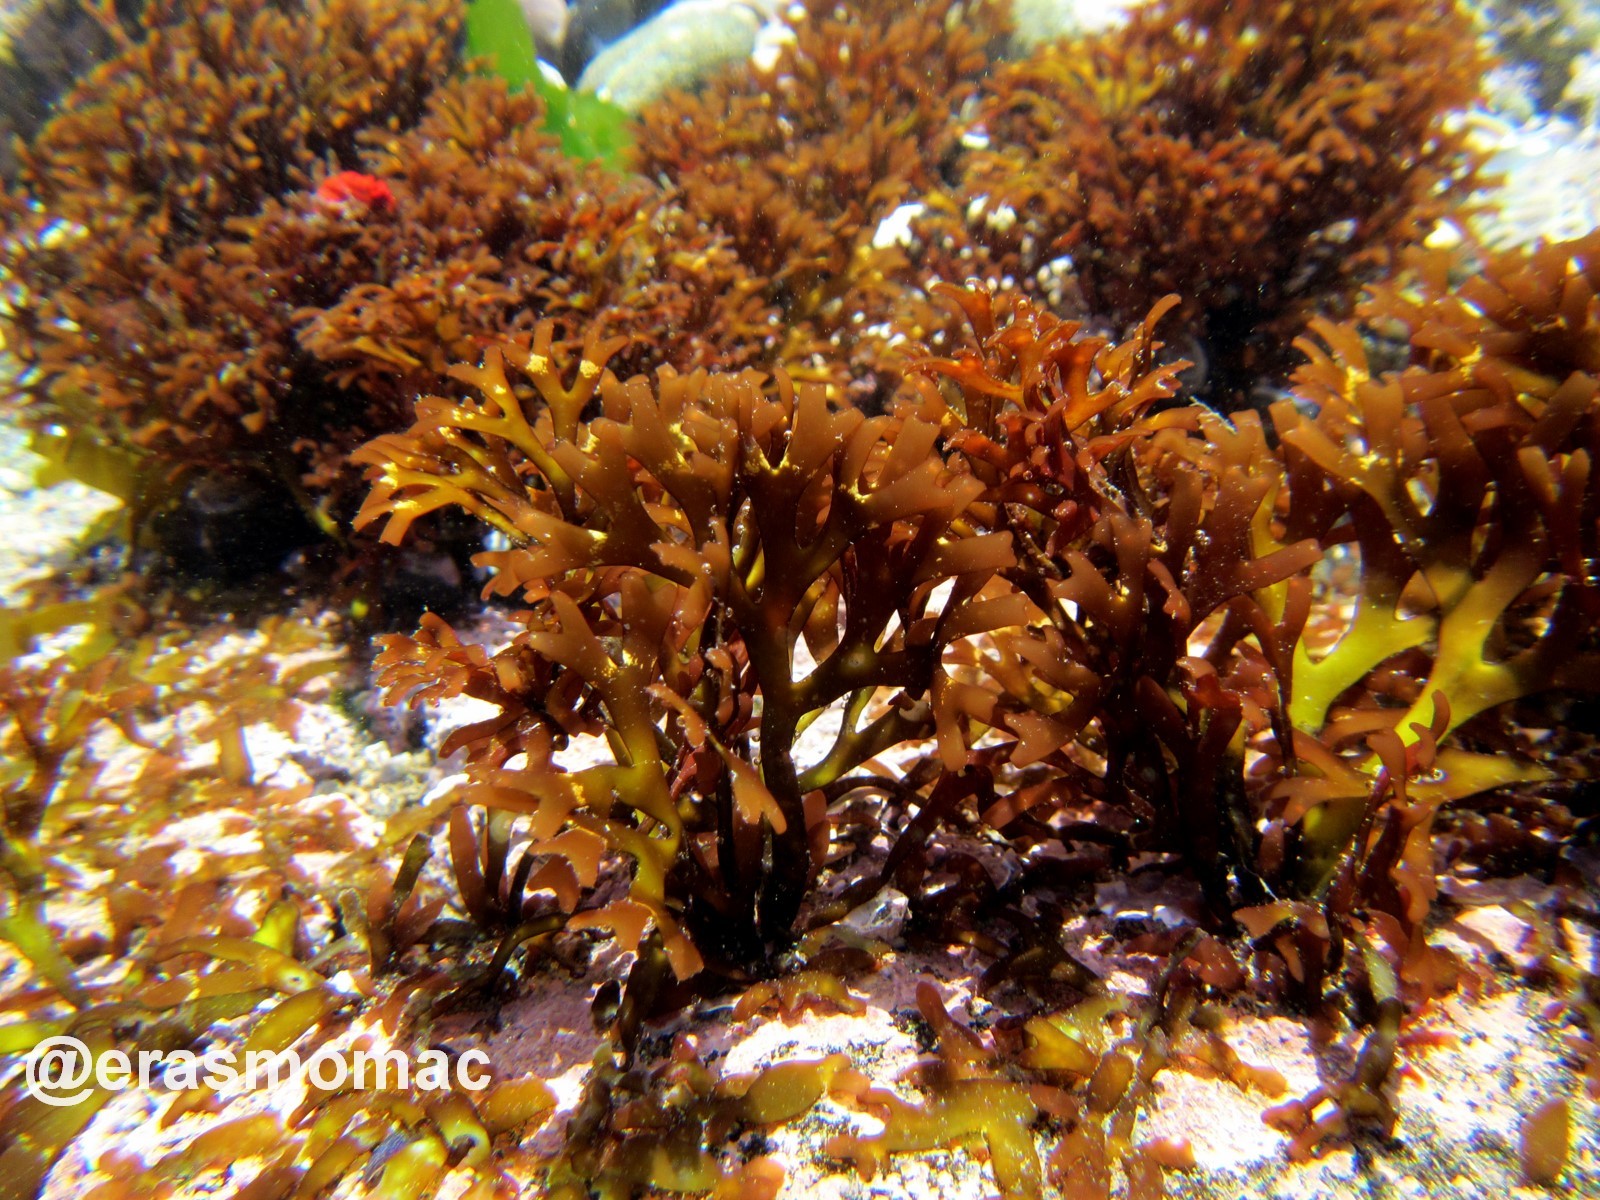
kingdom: Plantae
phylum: Rhodophyta
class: Florideophyceae
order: Gigartinales
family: Sarcodiaceae
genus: Trematocarpus
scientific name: Trematocarpus
